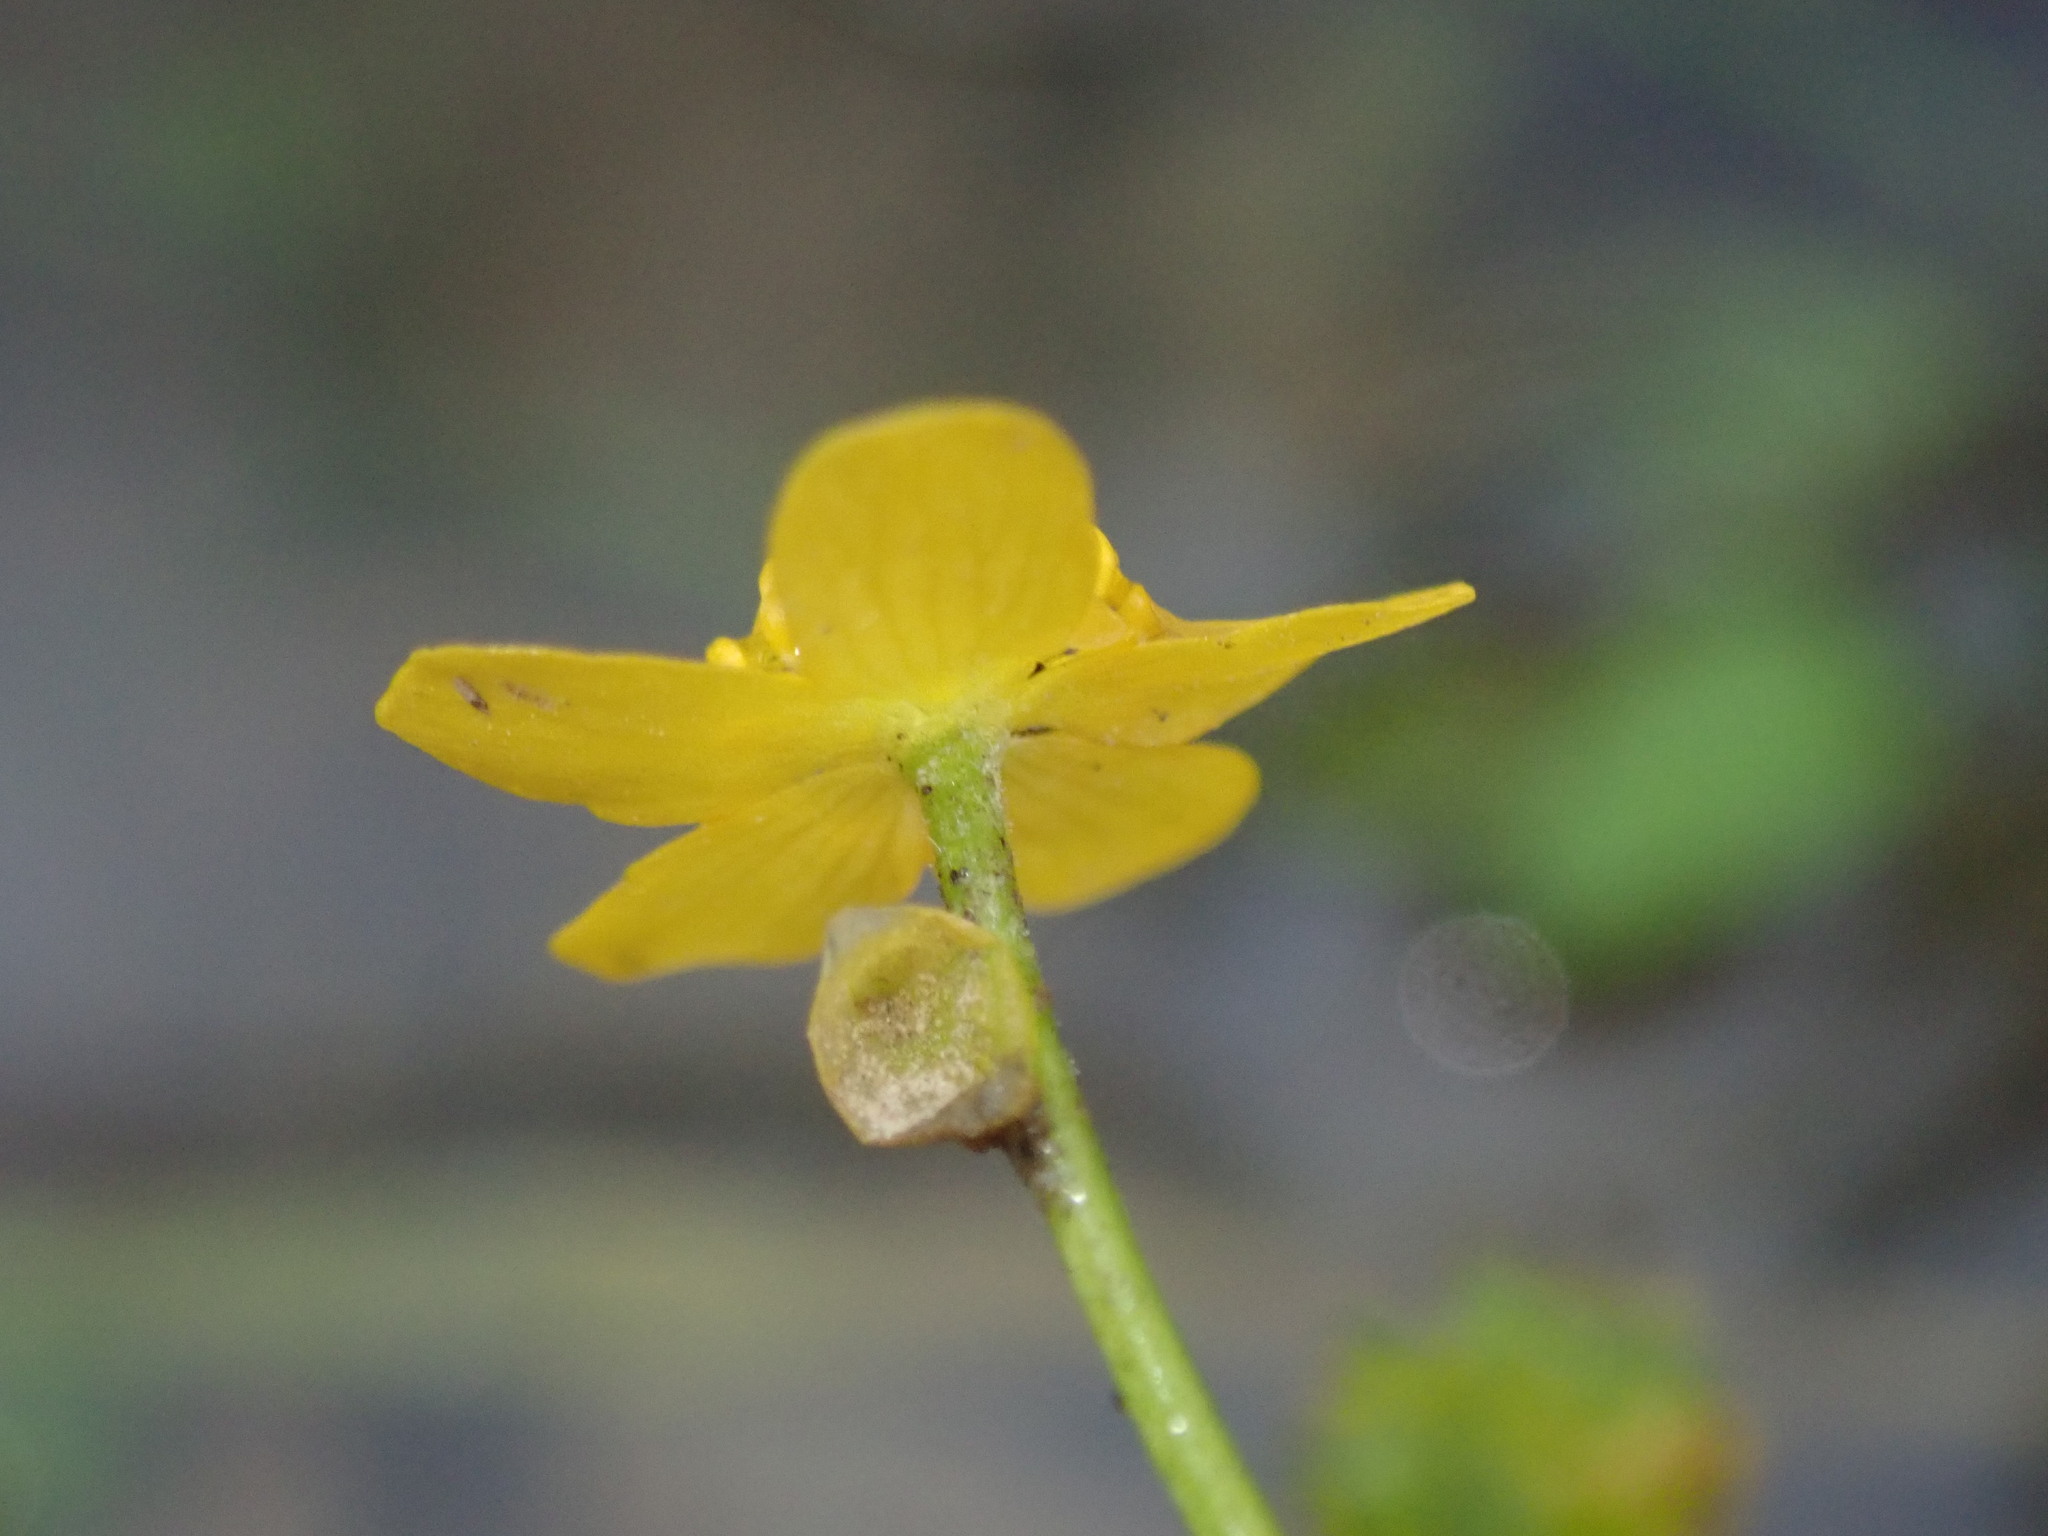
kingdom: Plantae
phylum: Tracheophyta
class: Magnoliopsida
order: Ranunculales
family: Ranunculaceae
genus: Ranunculus
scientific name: Ranunculus flammula
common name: Lesser spearwort
